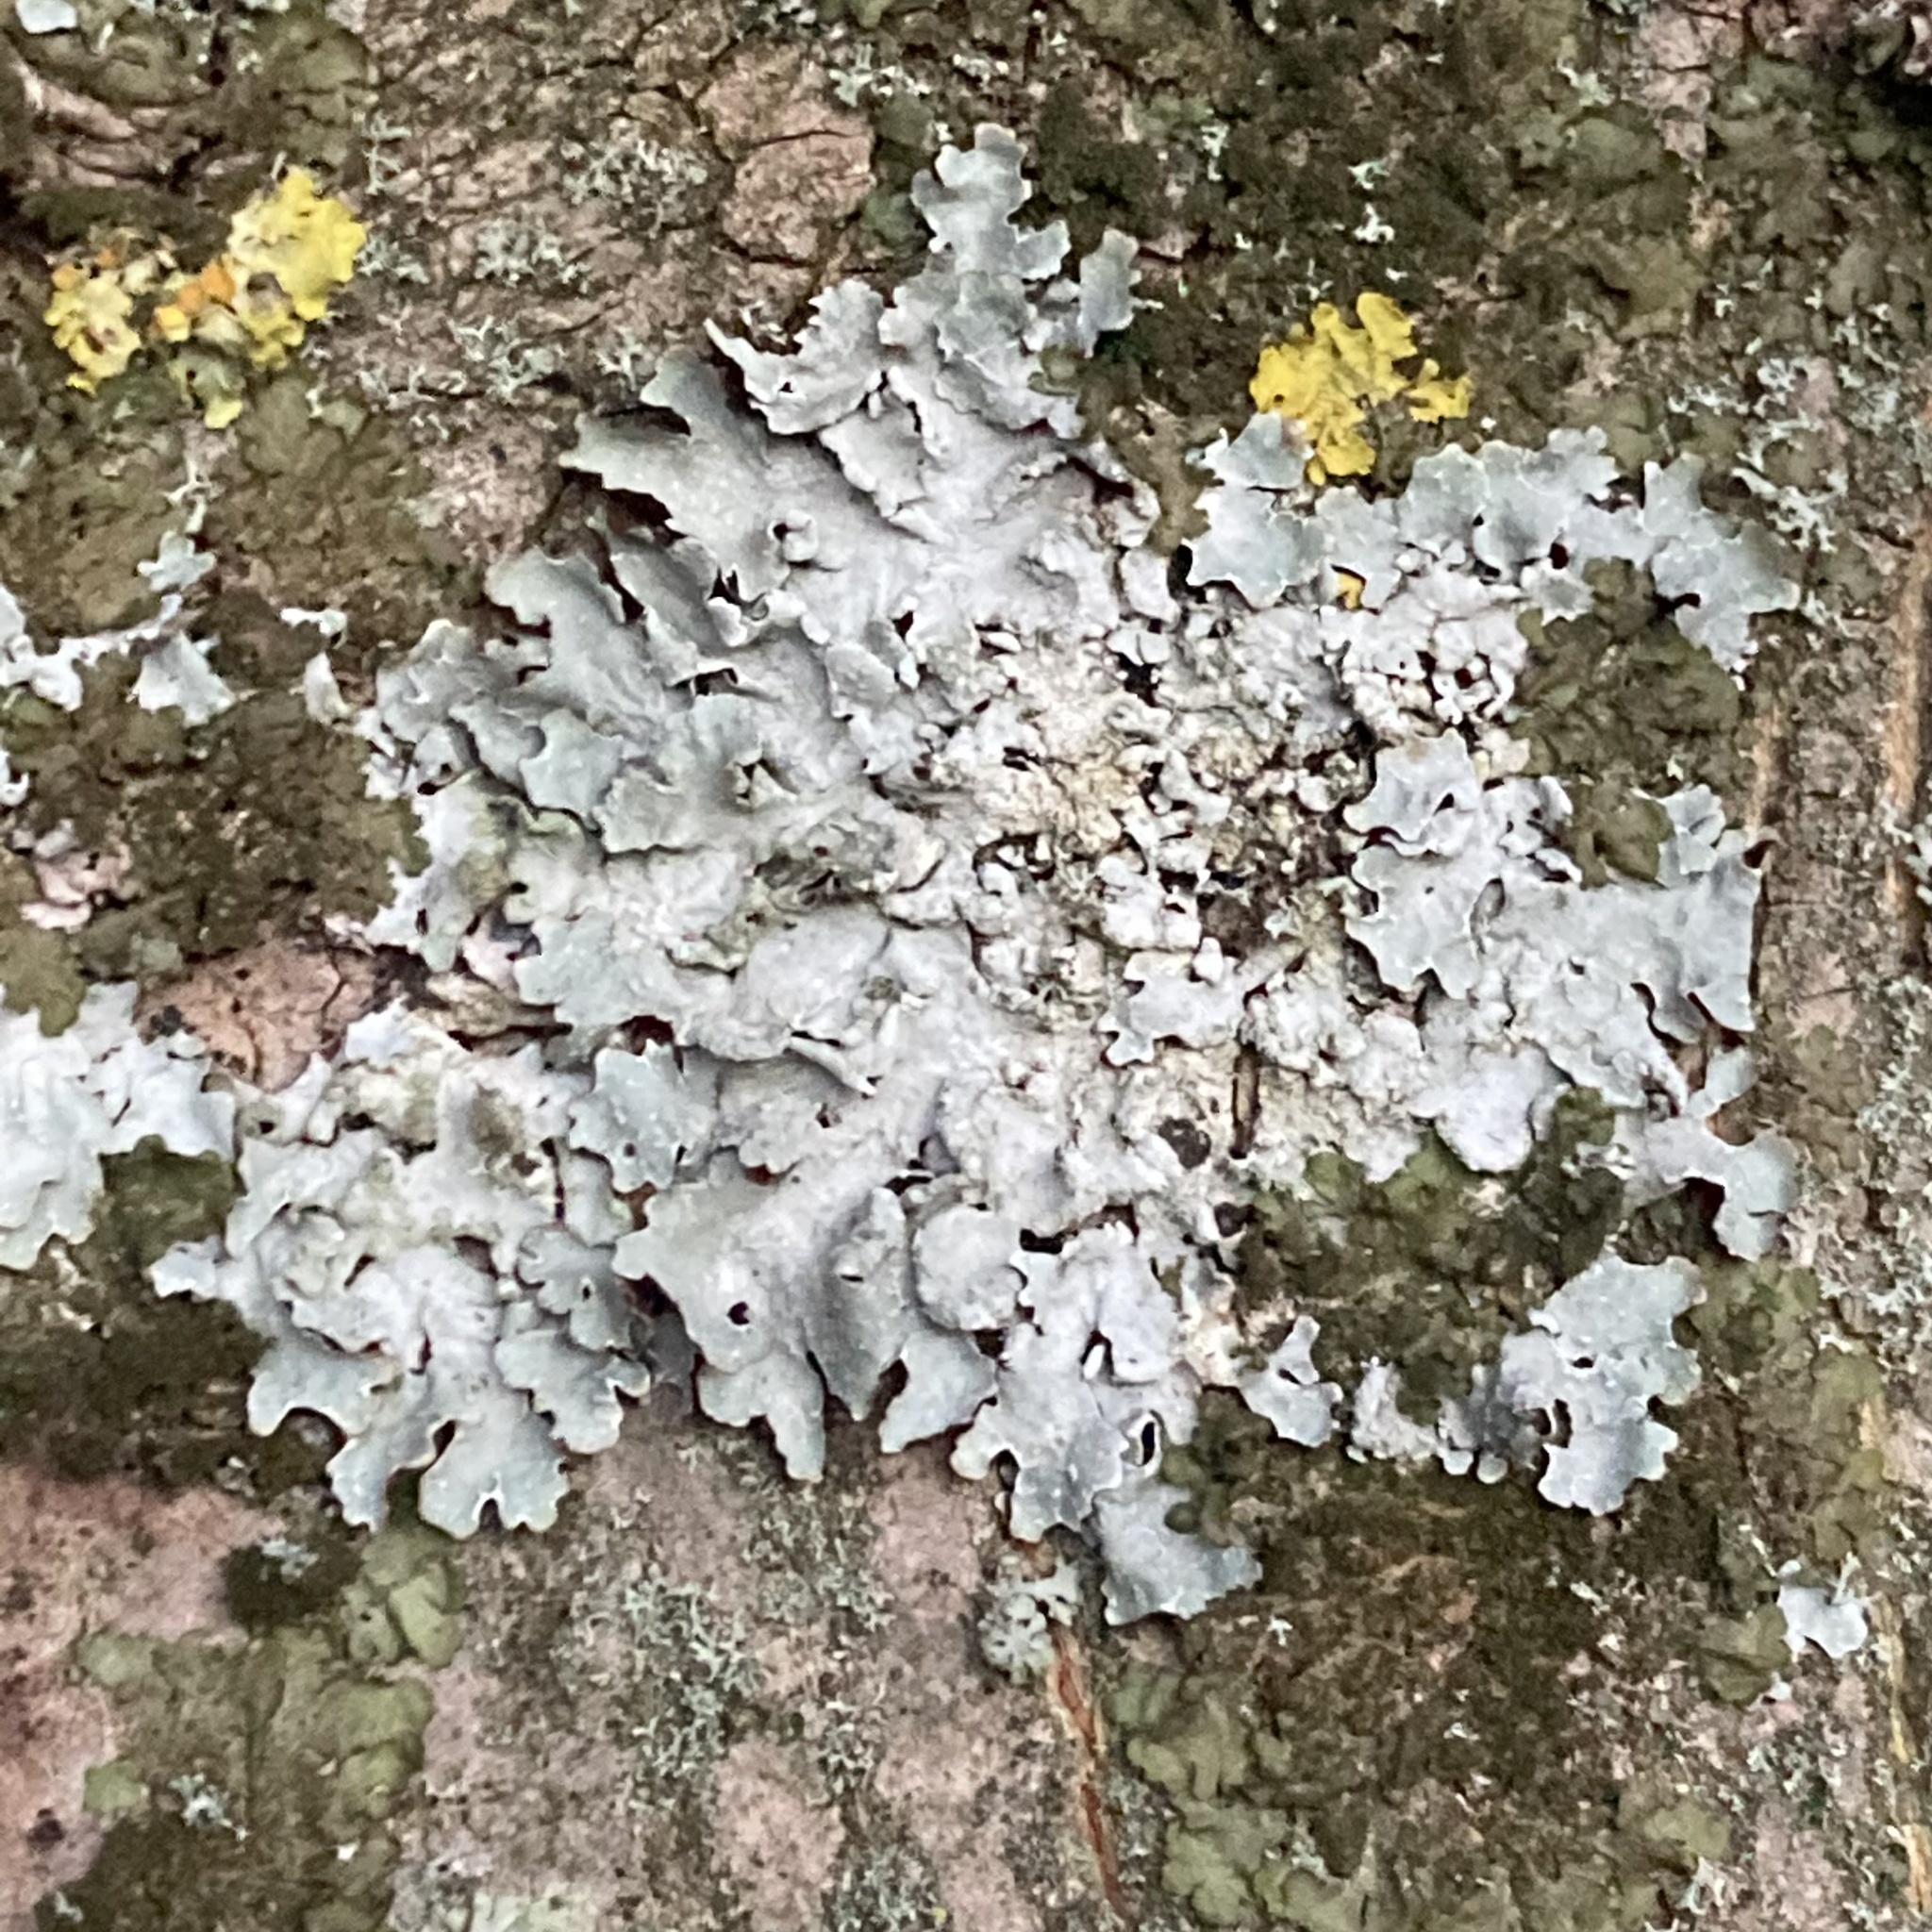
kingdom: Fungi
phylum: Ascomycota
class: Lecanoromycetes
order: Lecanorales
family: Parmeliaceae
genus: Parmelia
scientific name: Parmelia sulcata
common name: Netted shield lichen
